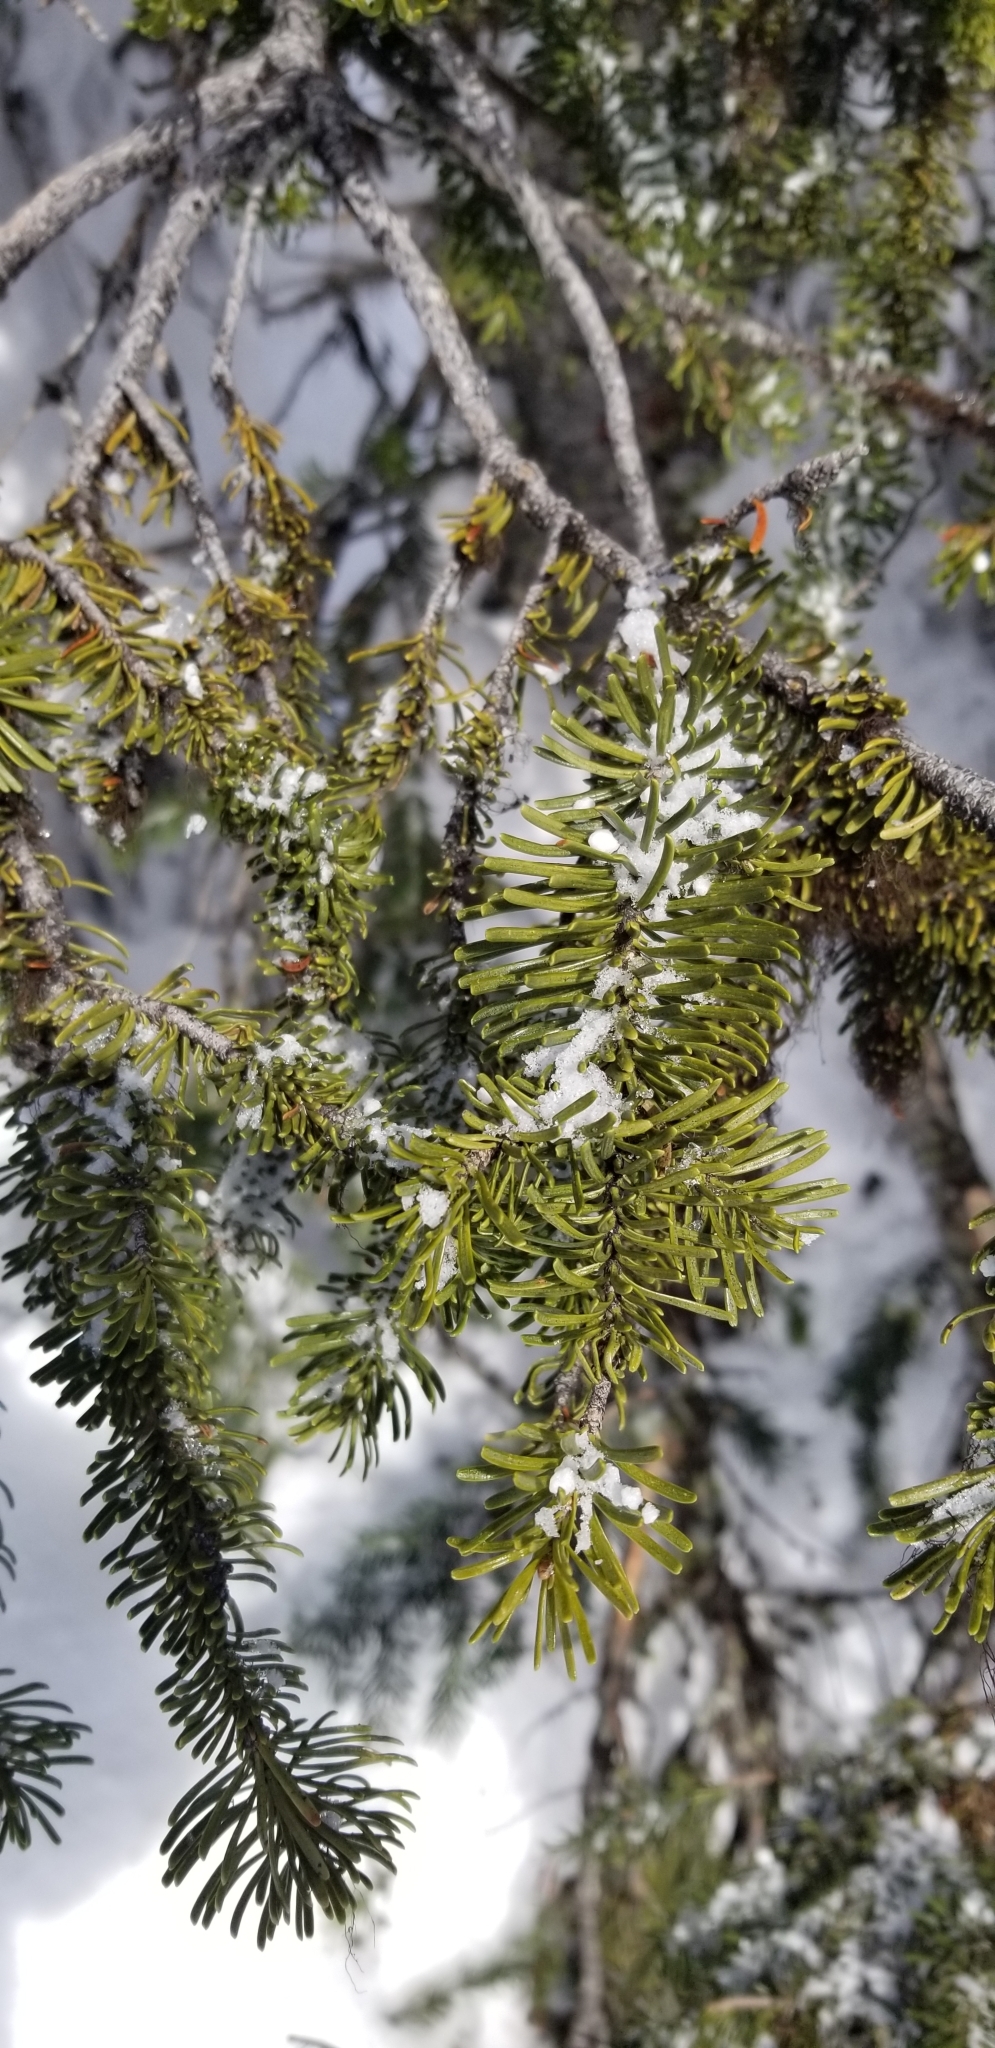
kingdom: Plantae
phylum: Tracheophyta
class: Pinopsida
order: Pinales
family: Pinaceae
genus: Abies
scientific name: Abies lasiocarpa
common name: Subalpine fir
